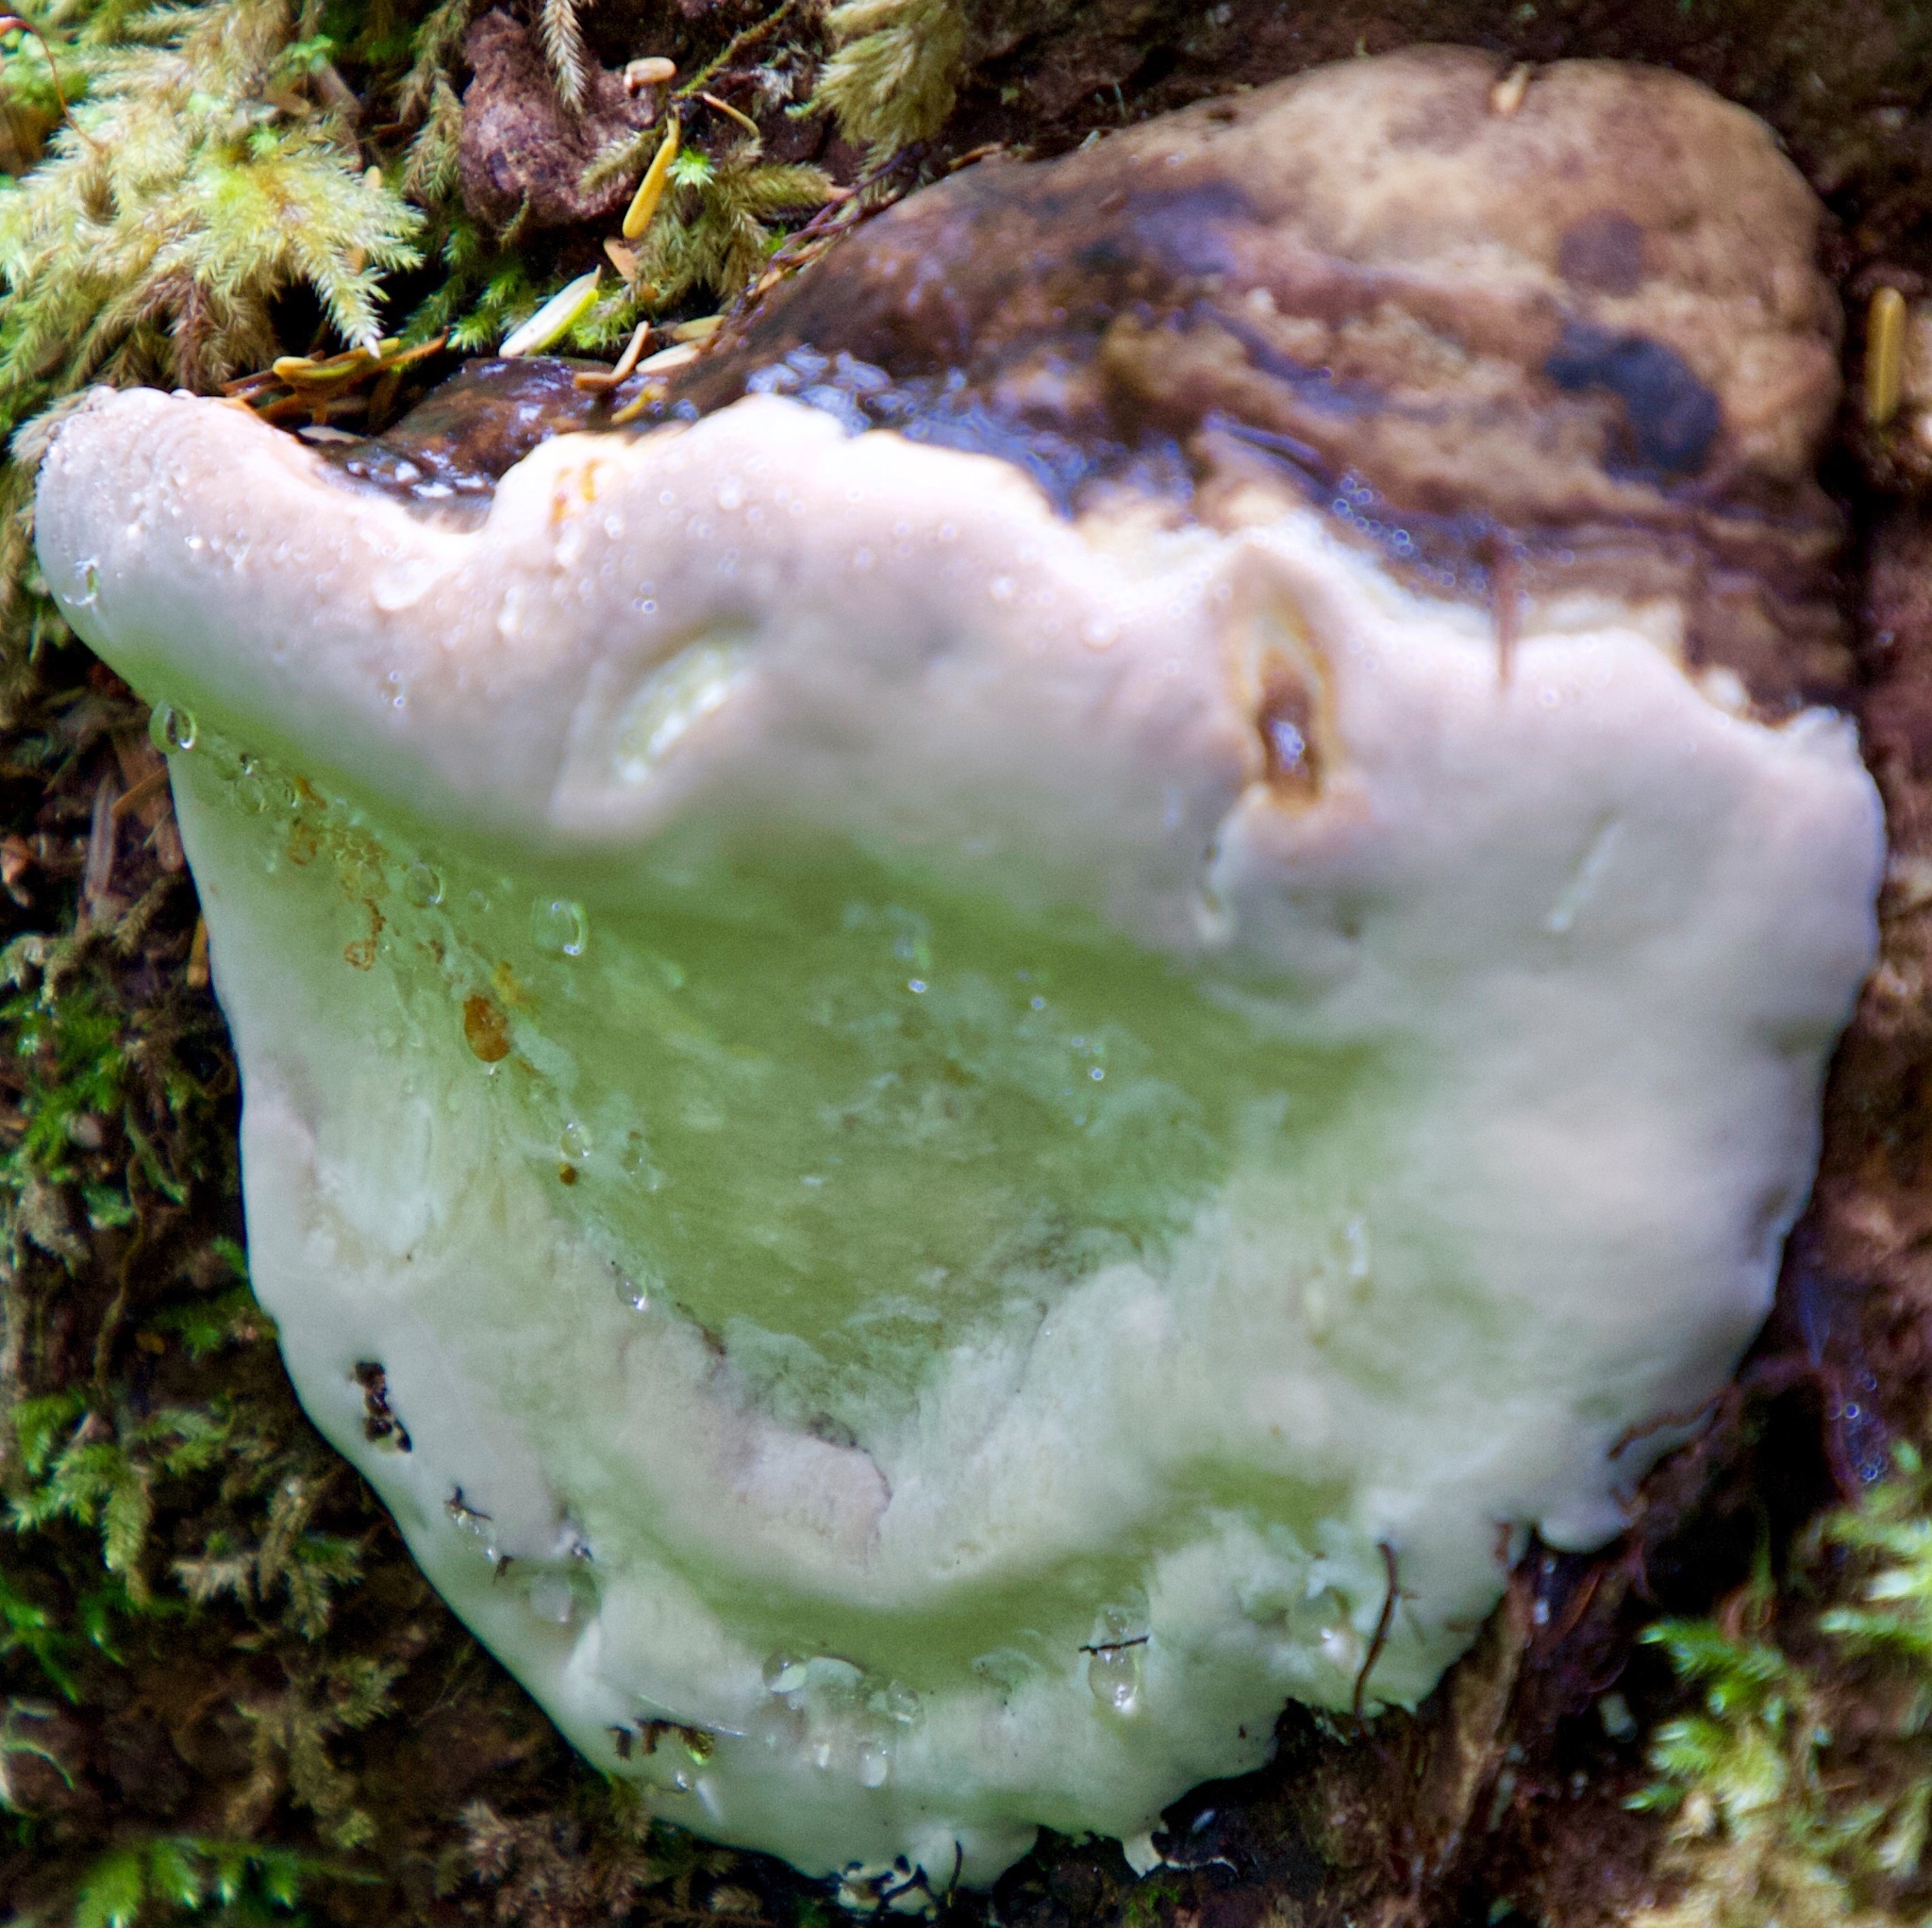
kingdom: Fungi
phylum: Basidiomycota
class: Agaricomycetes
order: Polyporales
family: Polyporaceae
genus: Ganoderma
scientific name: Ganoderma applanatum
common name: Artist's bracket
